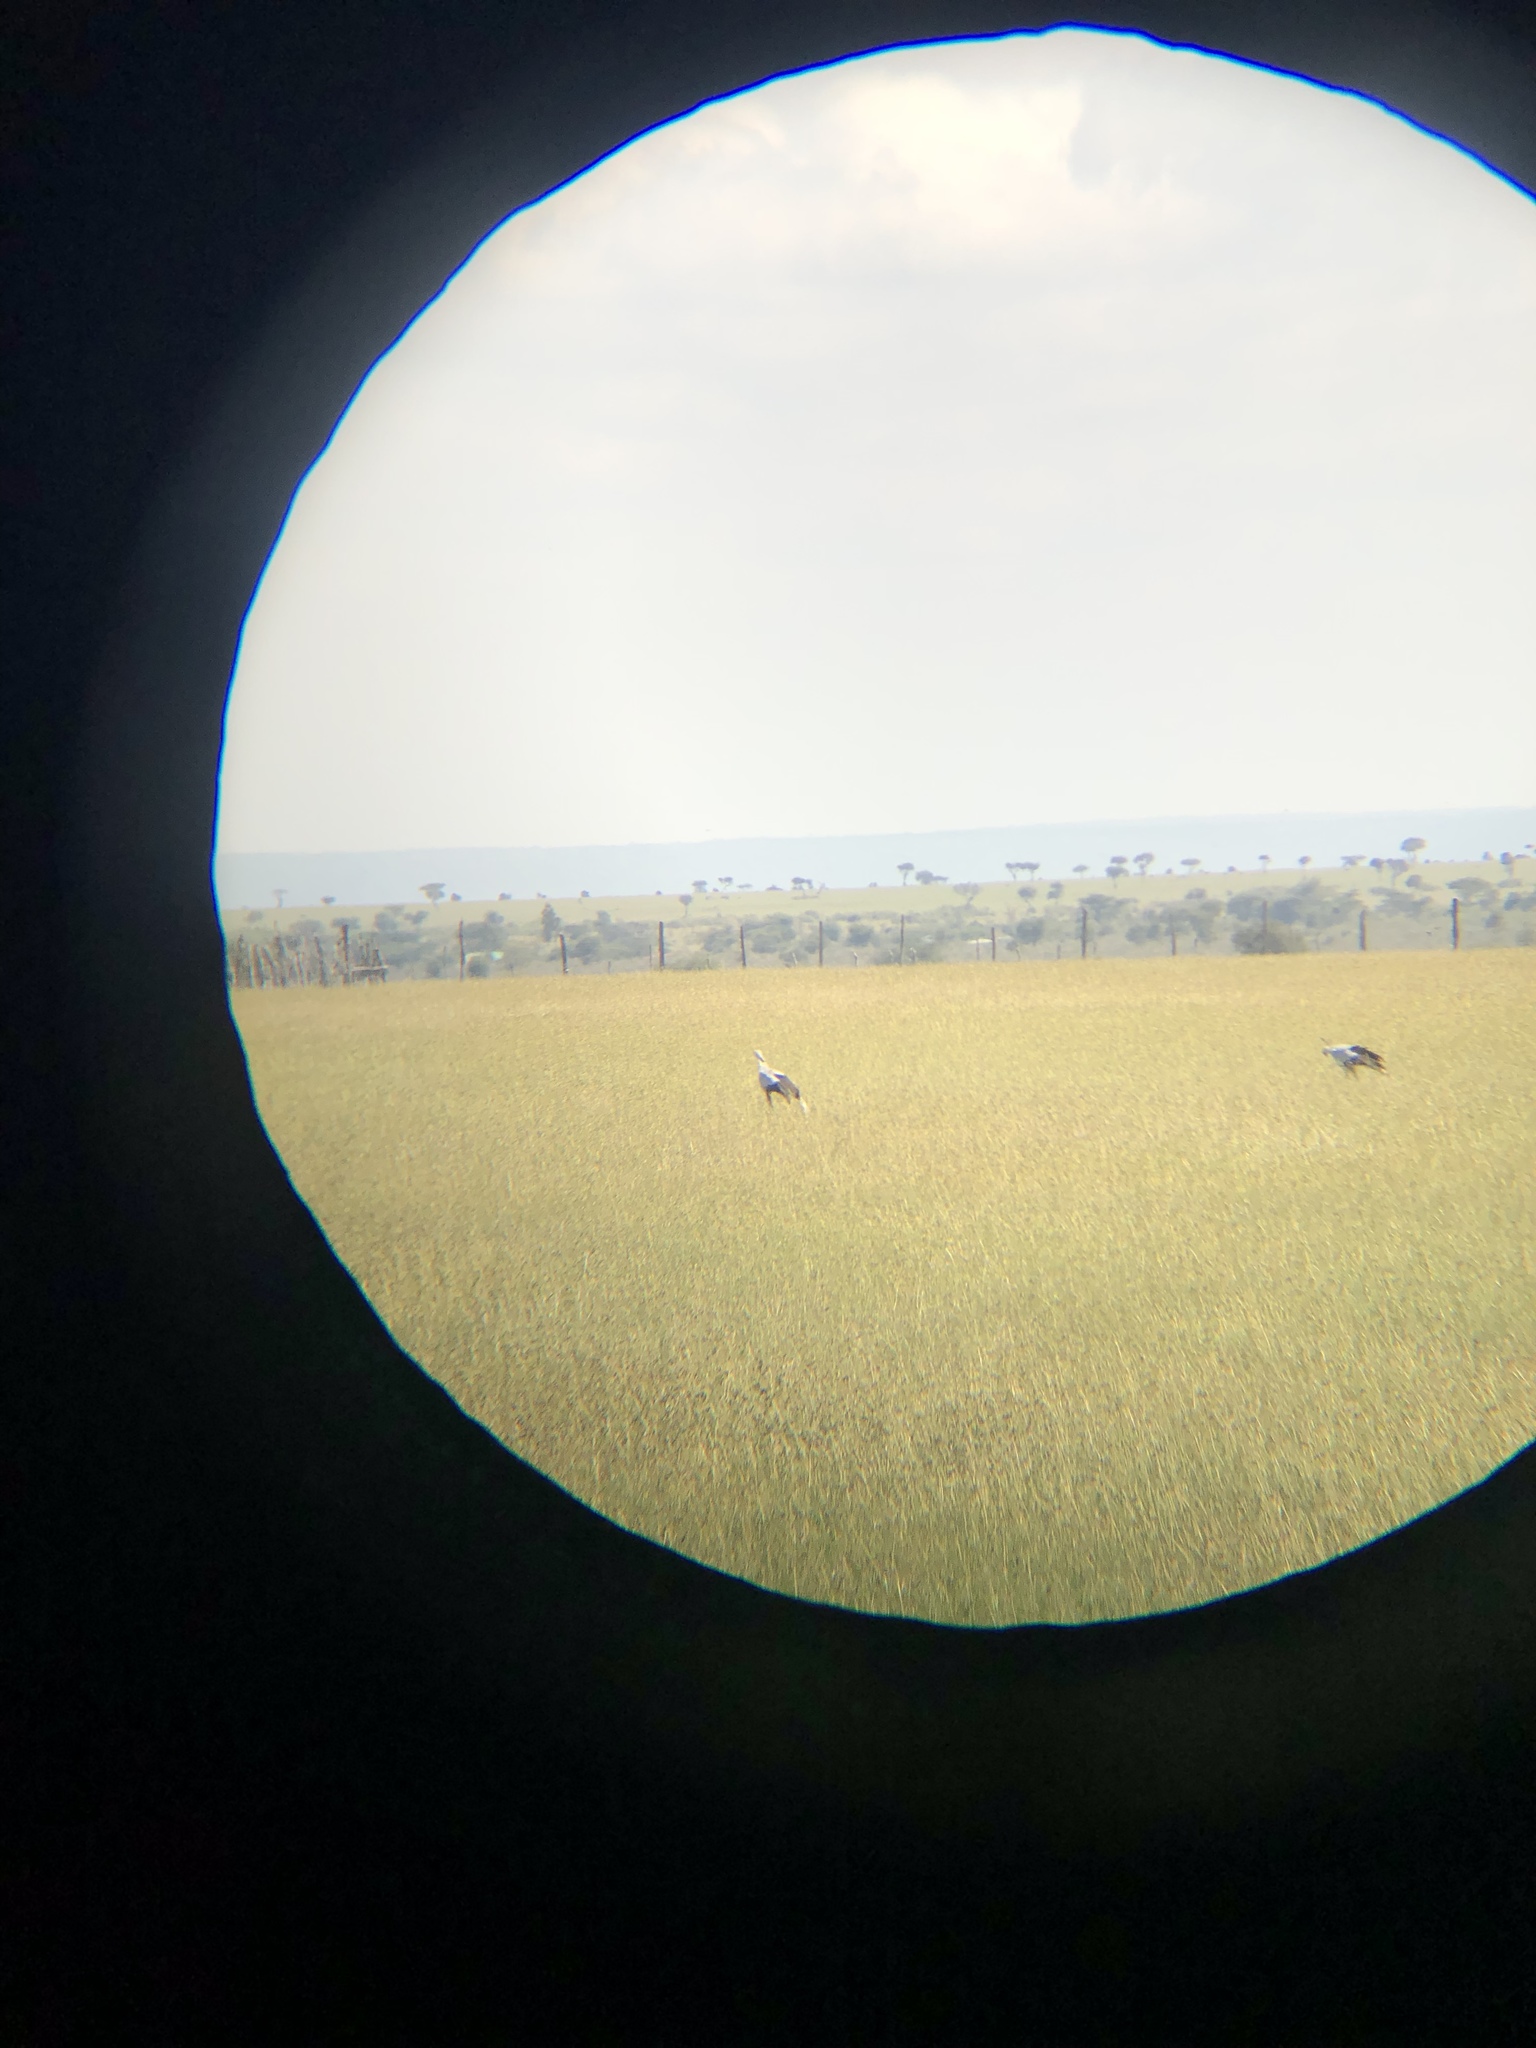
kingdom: Animalia
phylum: Chordata
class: Aves
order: Accipitriformes
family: Sagittariidae
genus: Sagittarius
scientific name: Sagittarius serpentarius
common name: Secretarybird
